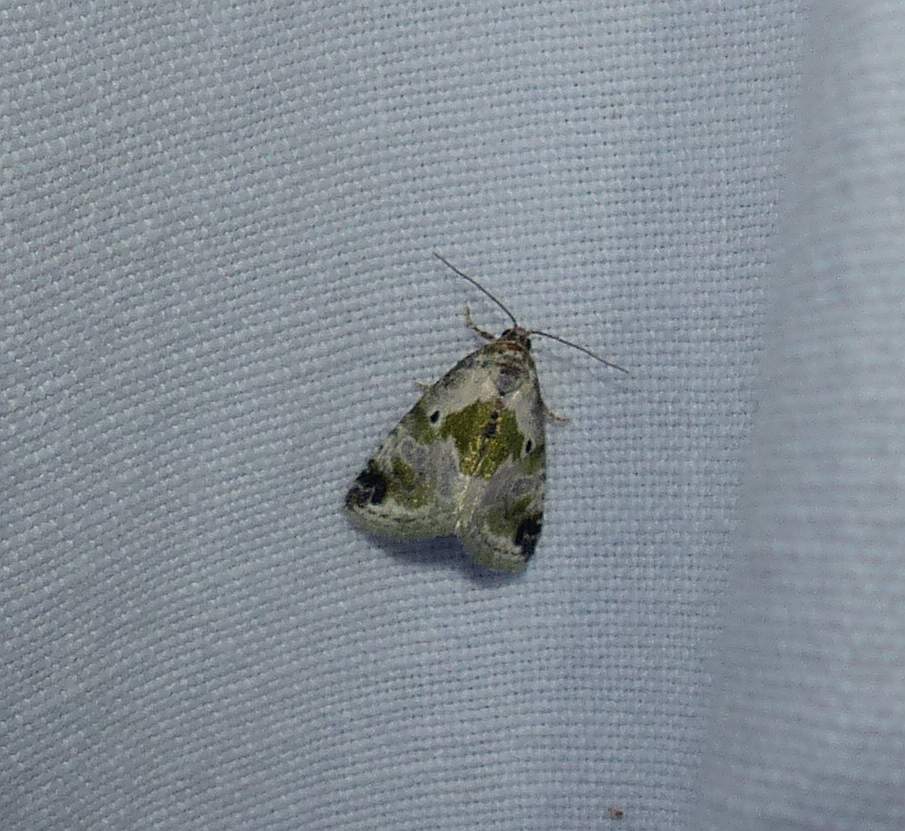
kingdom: Animalia
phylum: Arthropoda
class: Insecta
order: Lepidoptera
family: Noctuidae
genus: Maliattha
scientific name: Maliattha synochitis
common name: Black-dotted glyph
